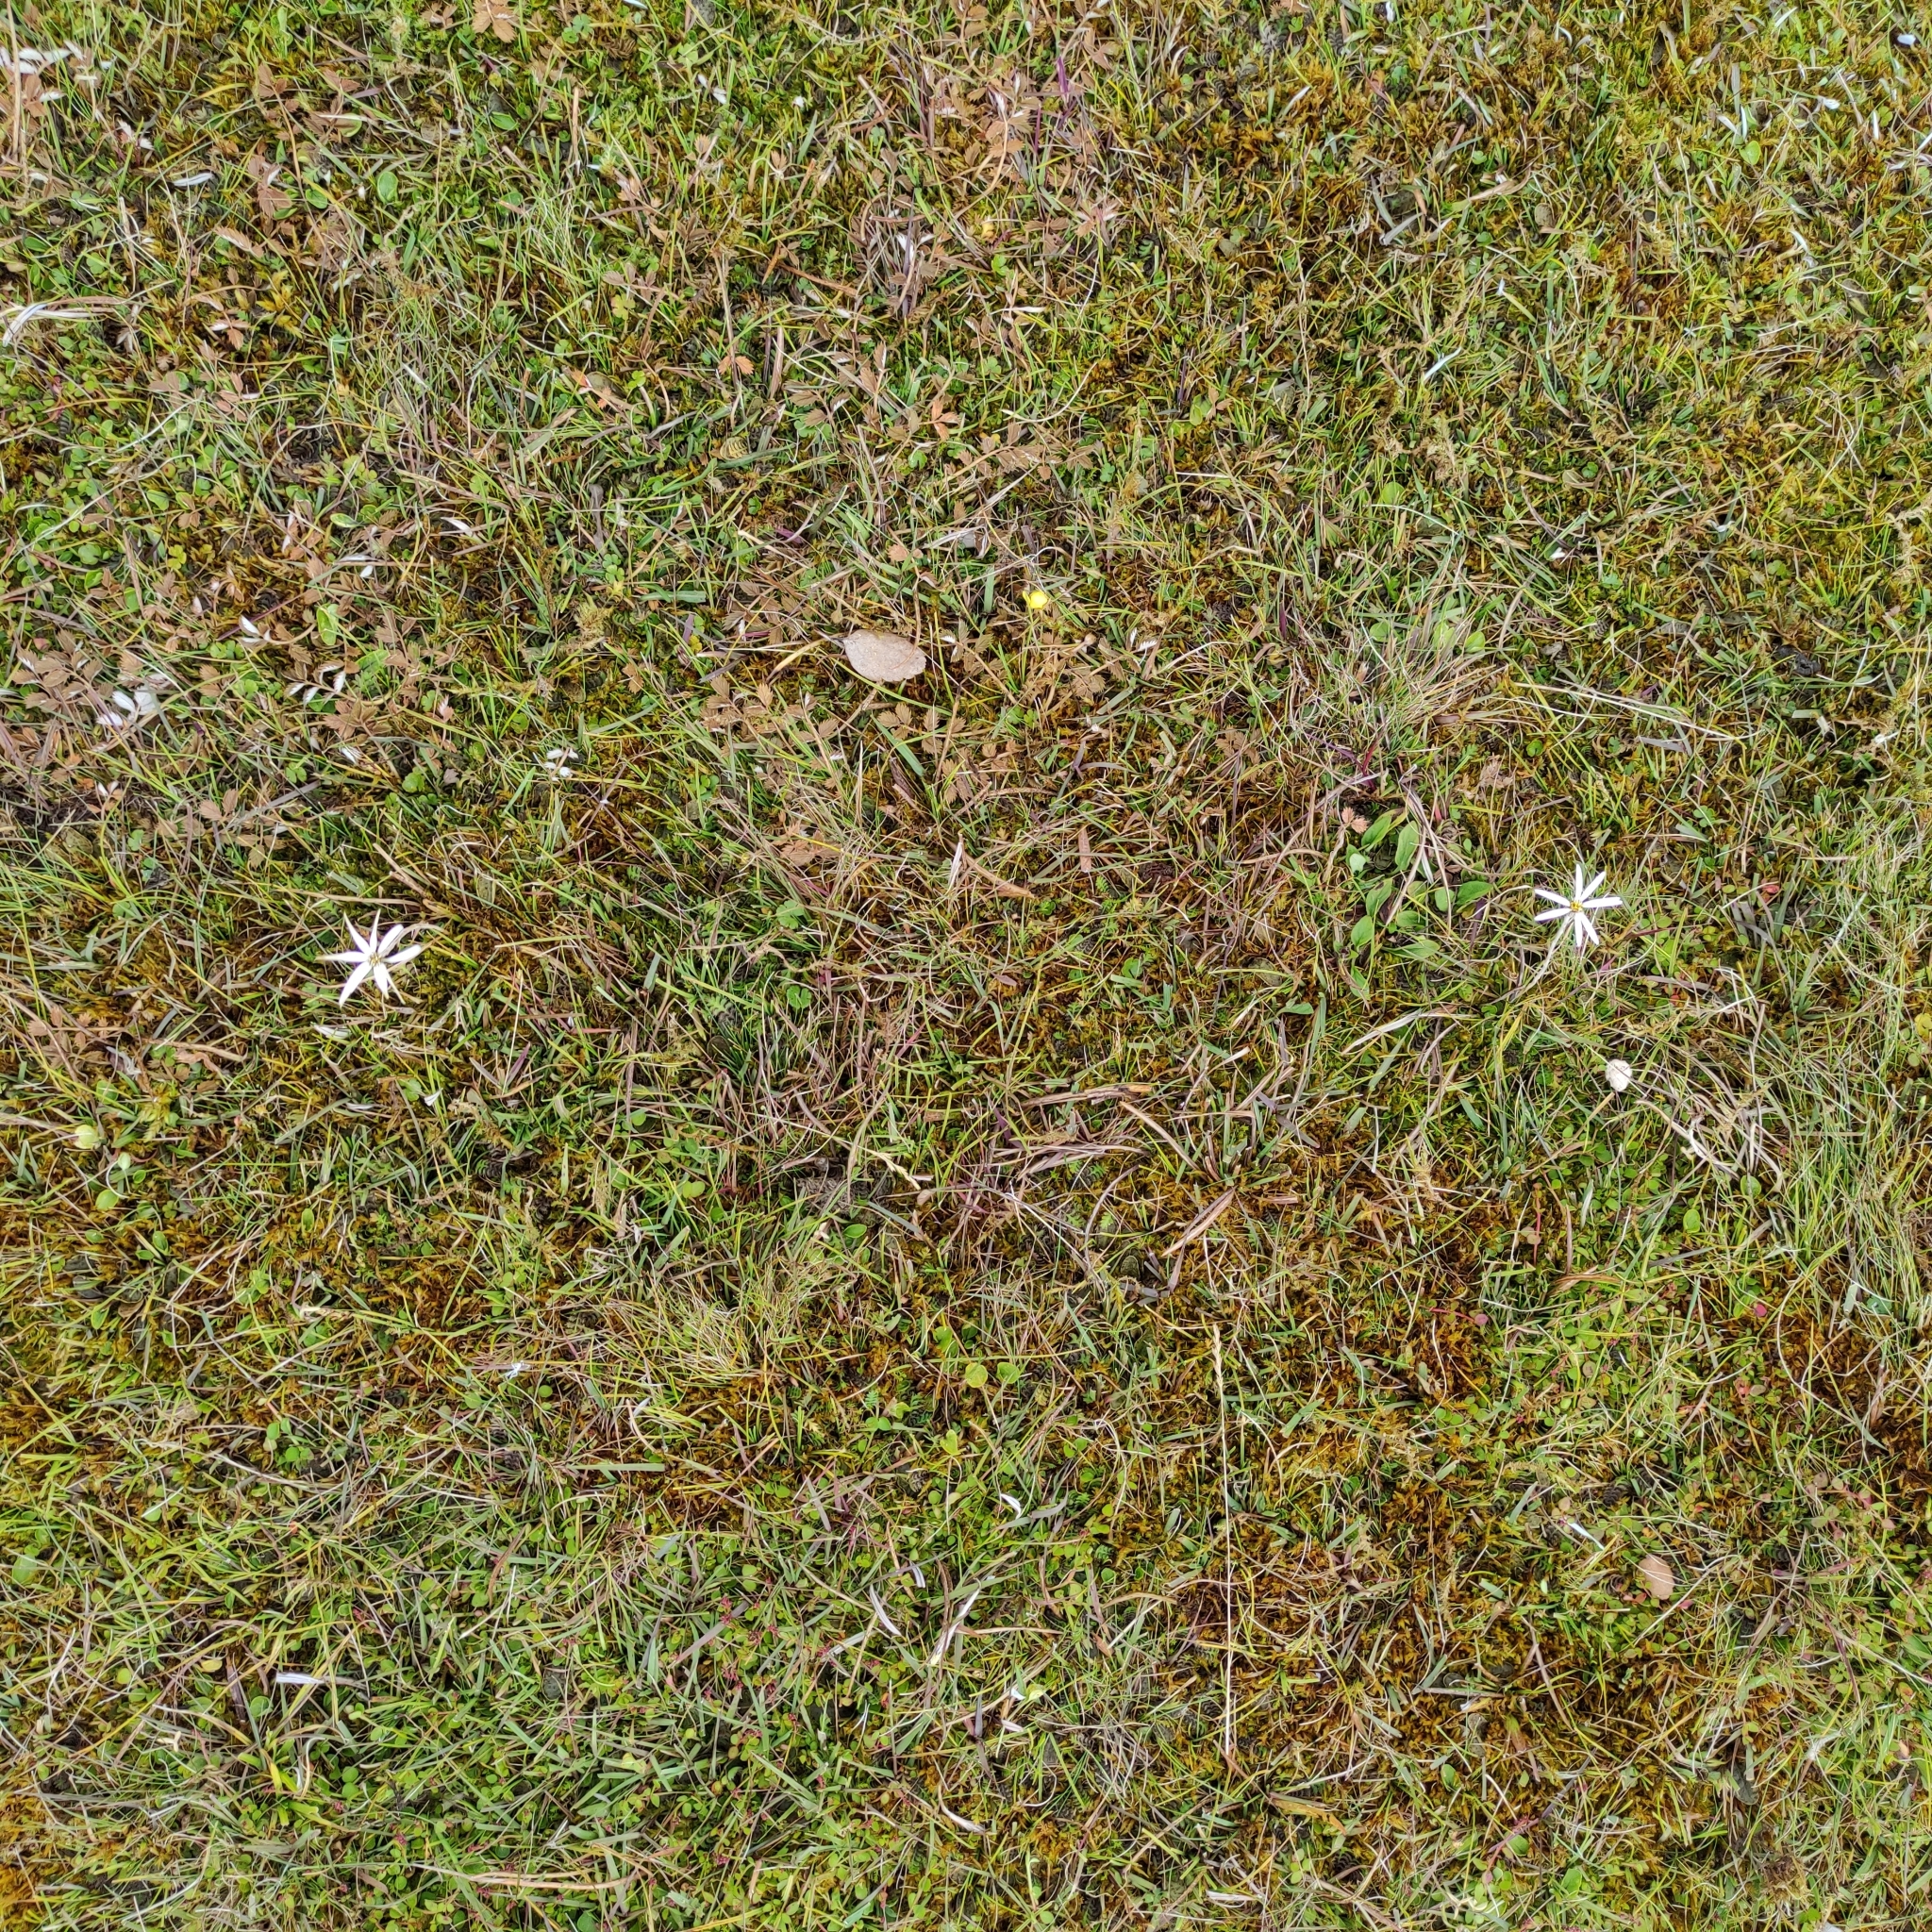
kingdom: Plantae
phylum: Tracheophyta
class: Magnoliopsida
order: Asterales
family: Asteraceae
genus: Celmisia
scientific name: Celmisia alpina
